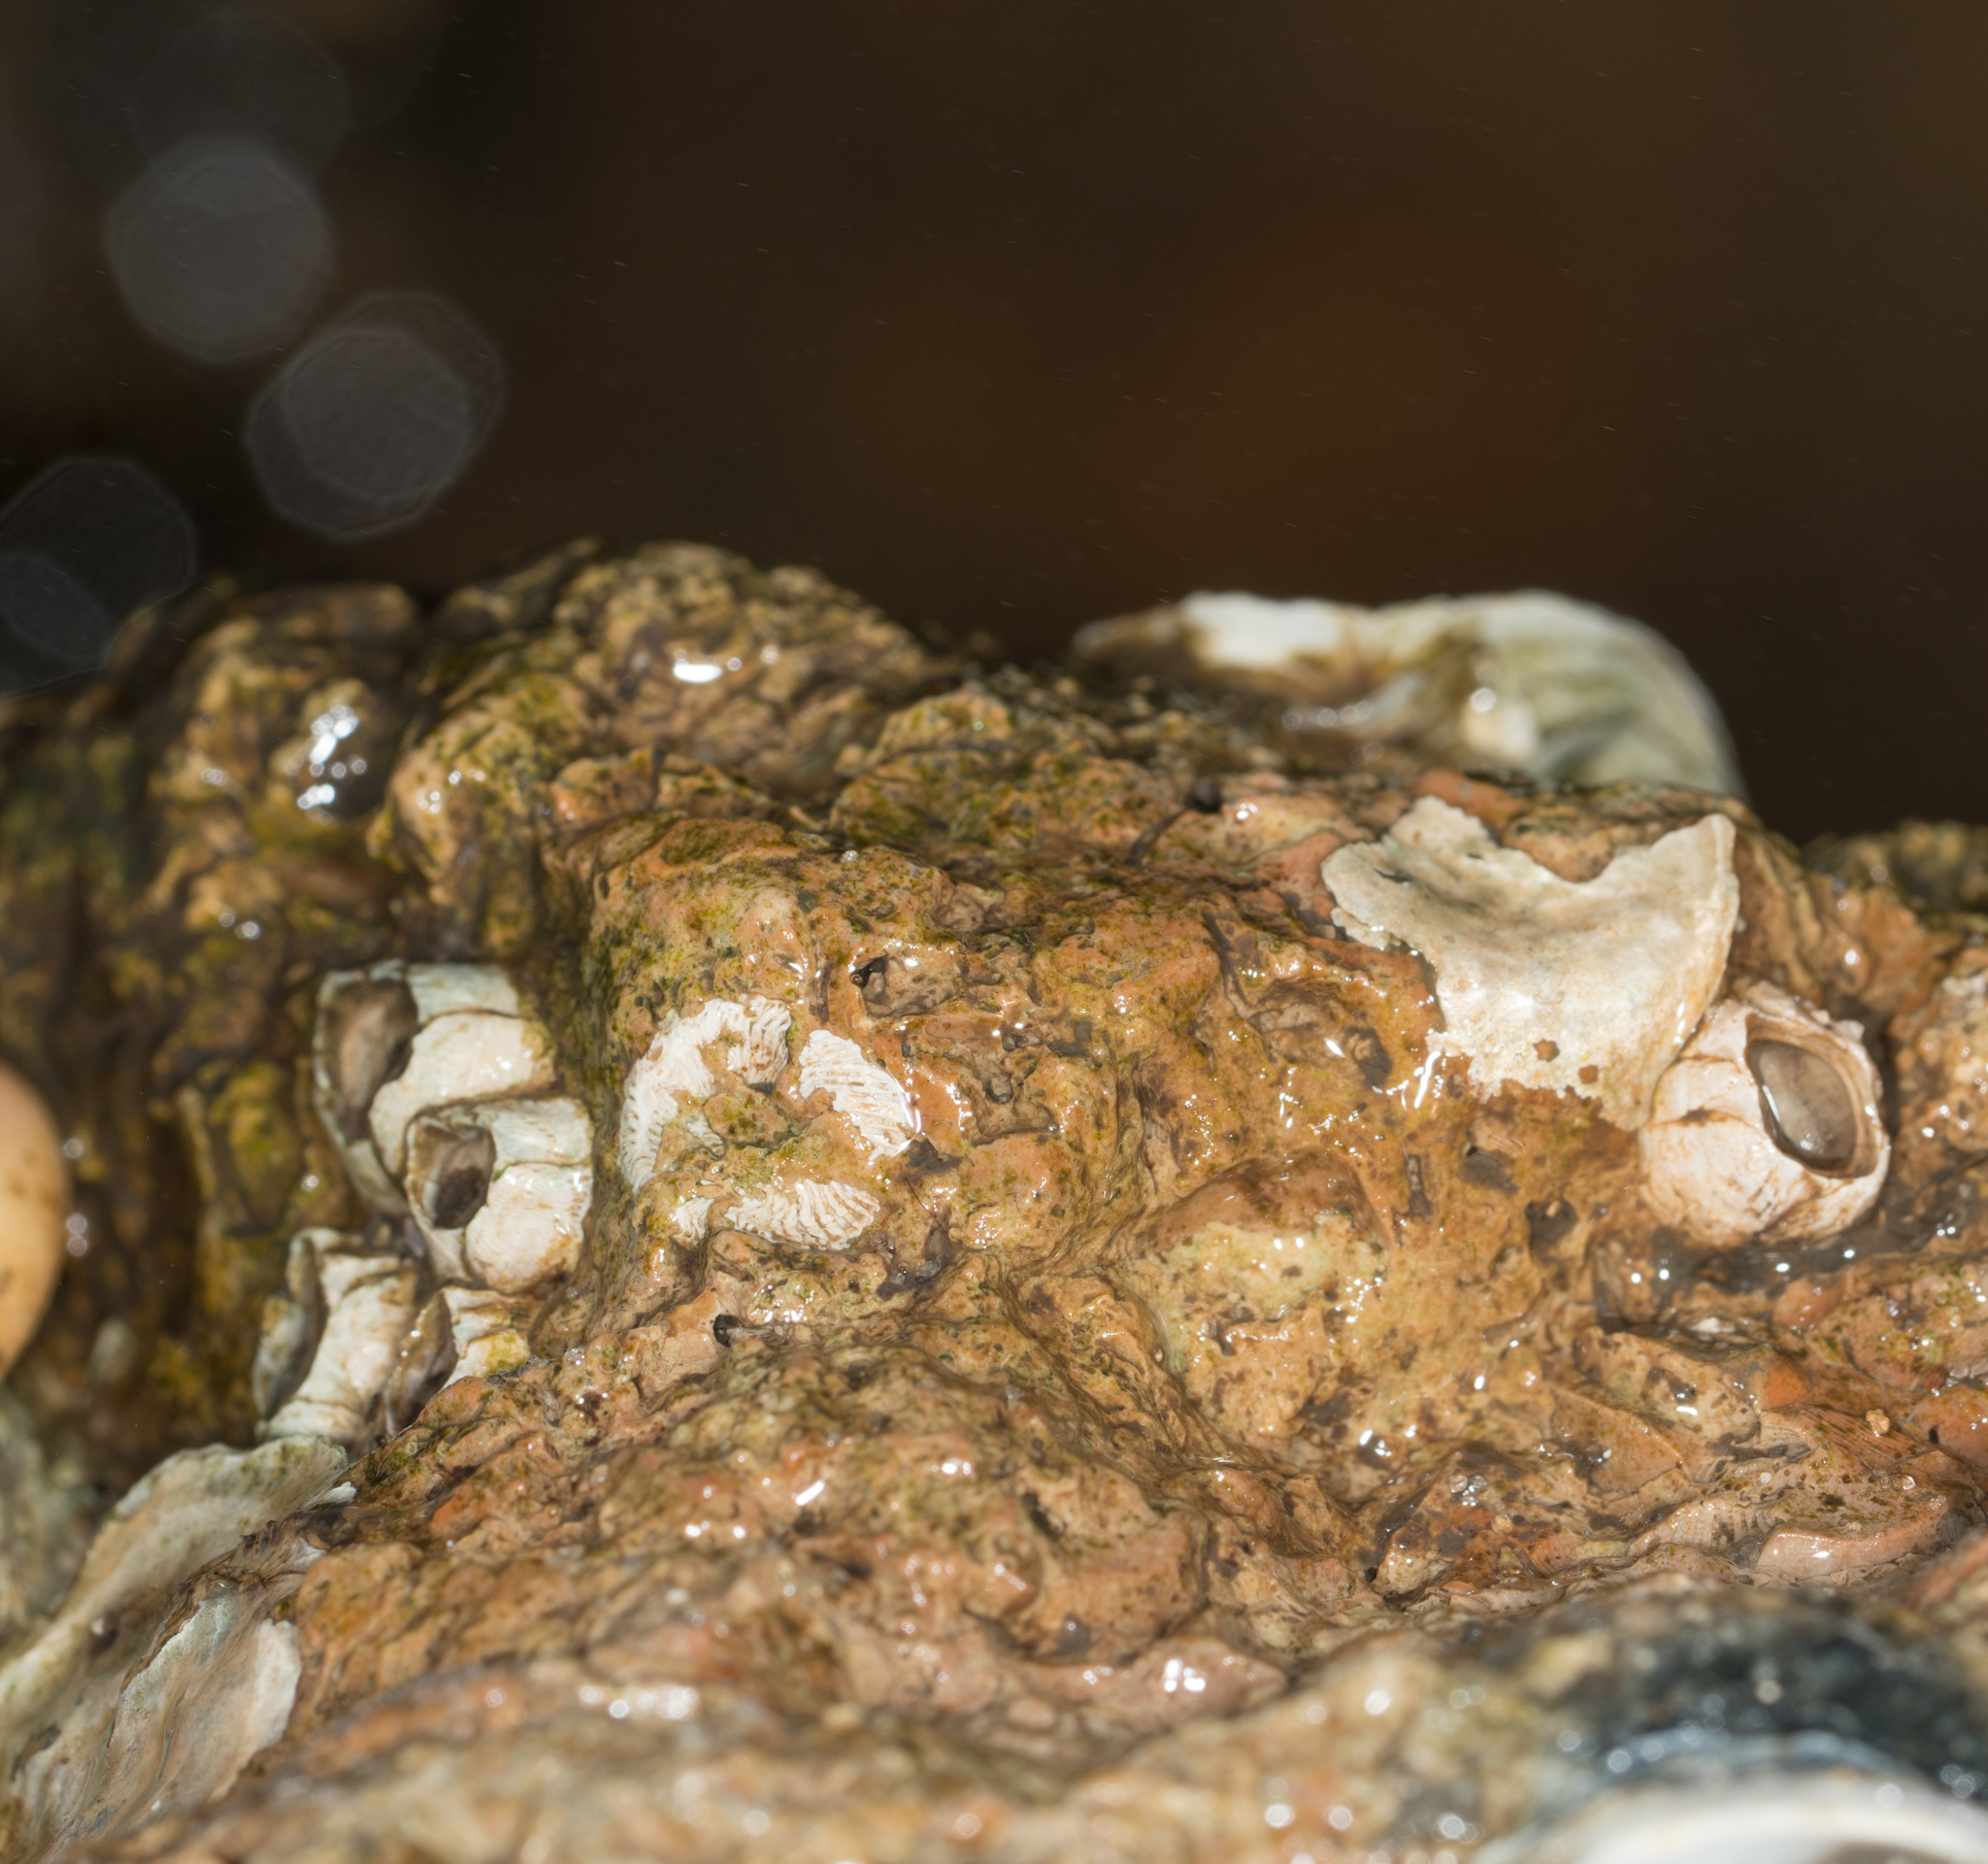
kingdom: Animalia
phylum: Arthropoda
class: Maxillopoda
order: Sessilia
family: Balanidae
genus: Amphibalanus
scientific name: Amphibalanus subalbidus
